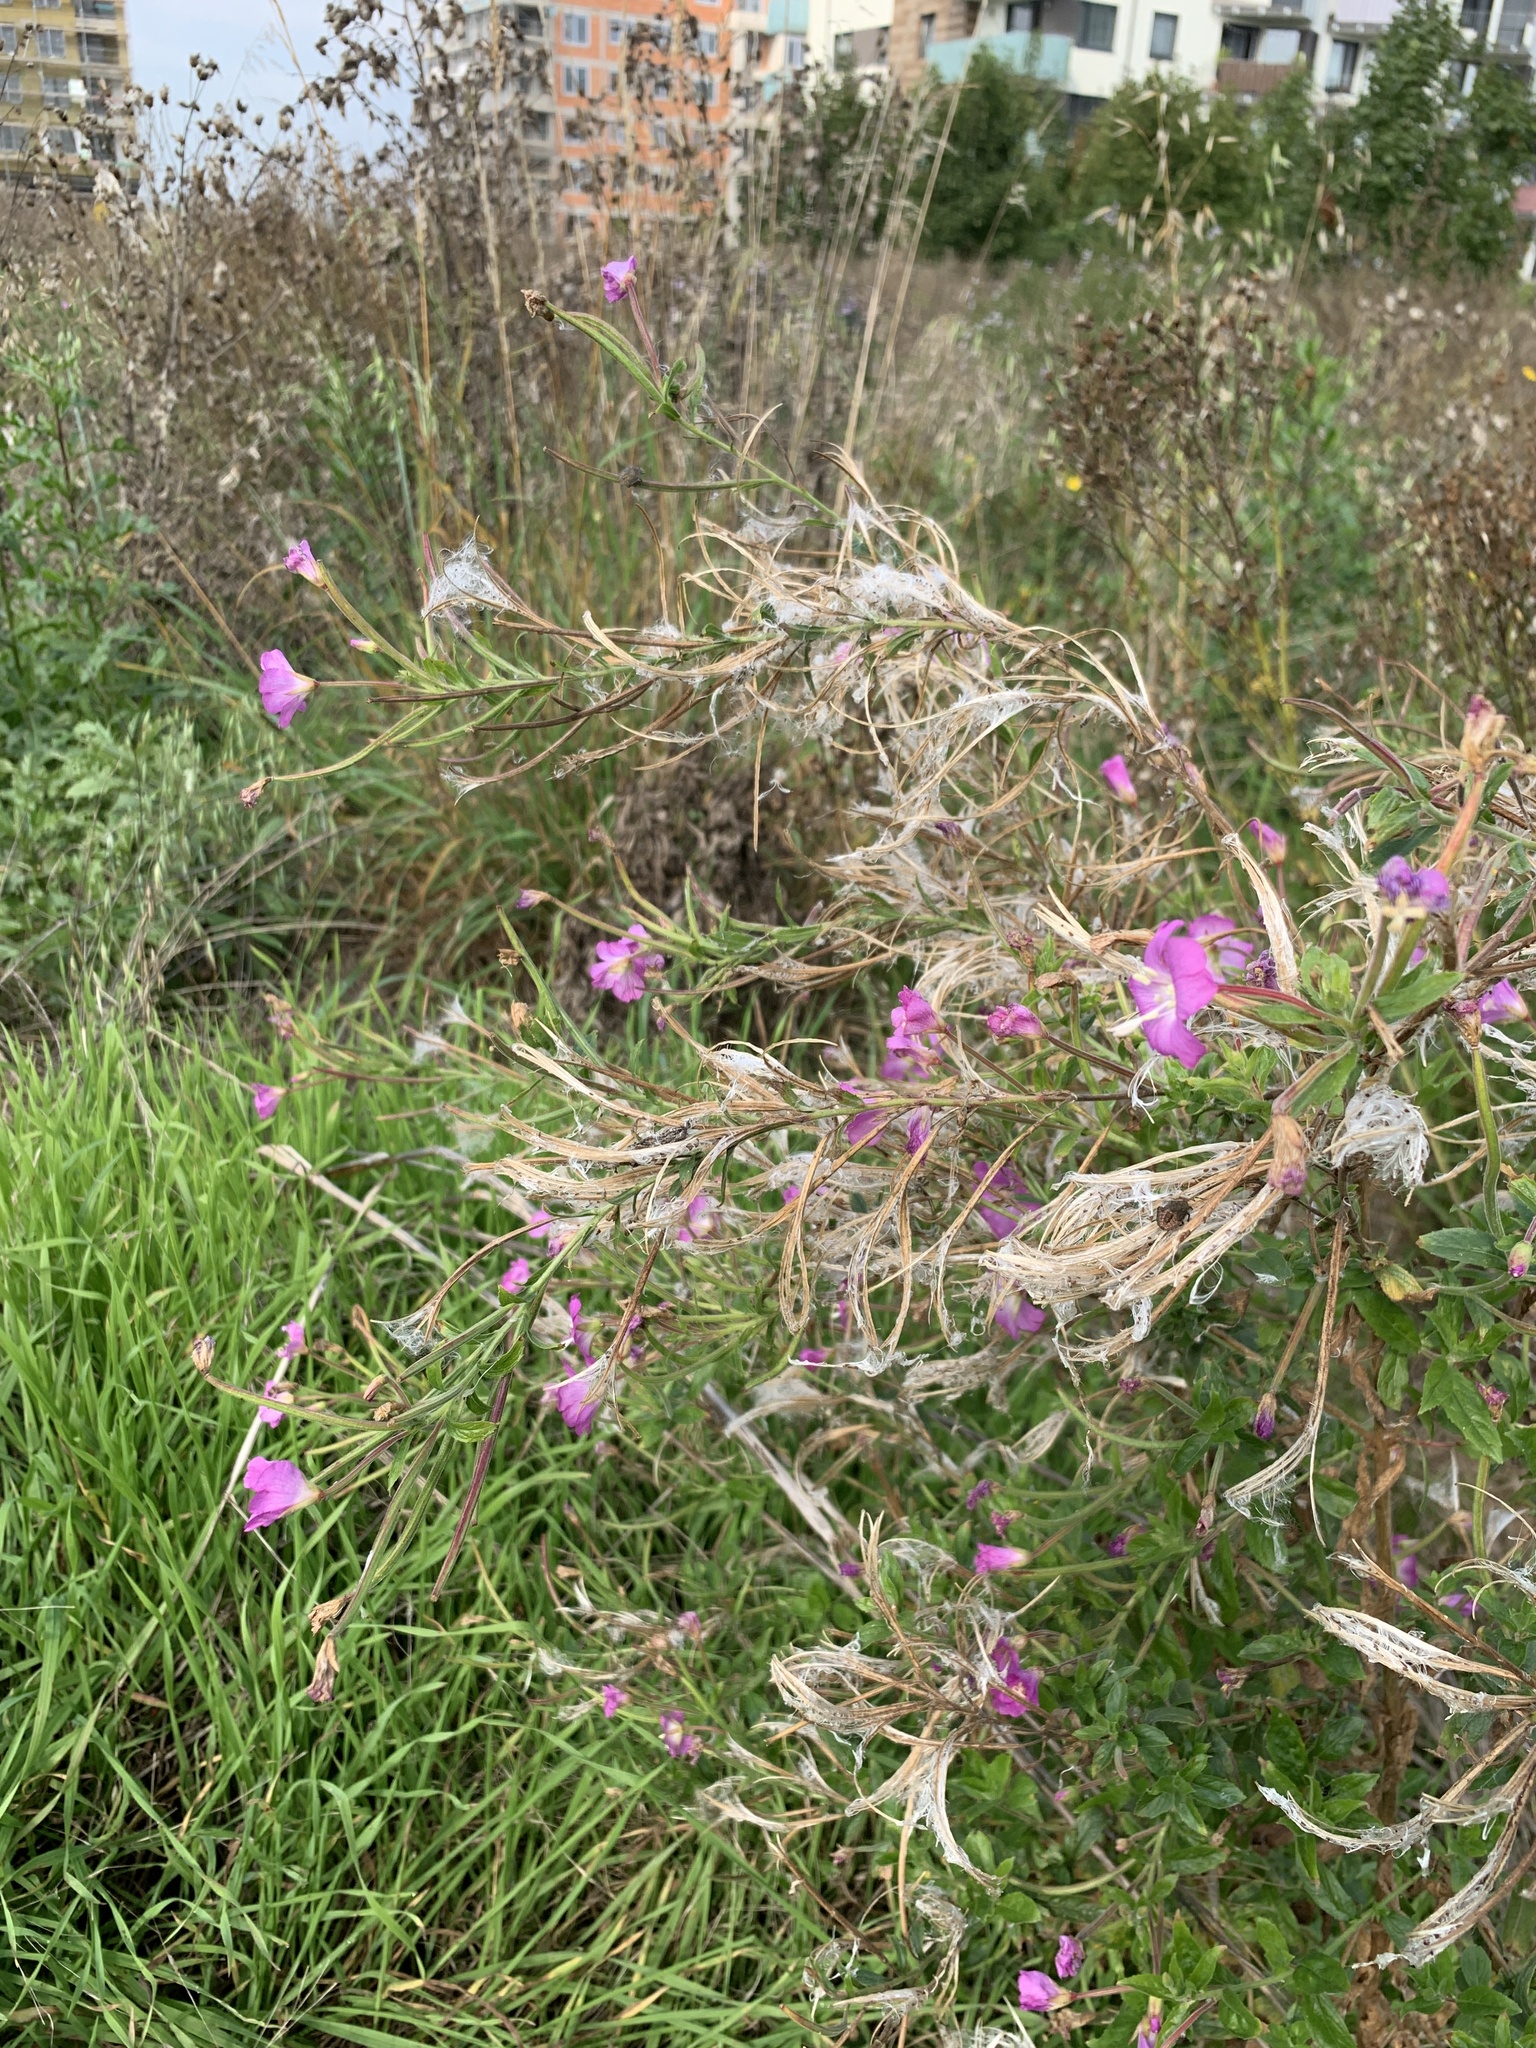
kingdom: Plantae
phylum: Tracheophyta
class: Magnoliopsida
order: Myrtales
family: Onagraceae
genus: Epilobium
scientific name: Epilobium hirsutum
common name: Great willowherb
